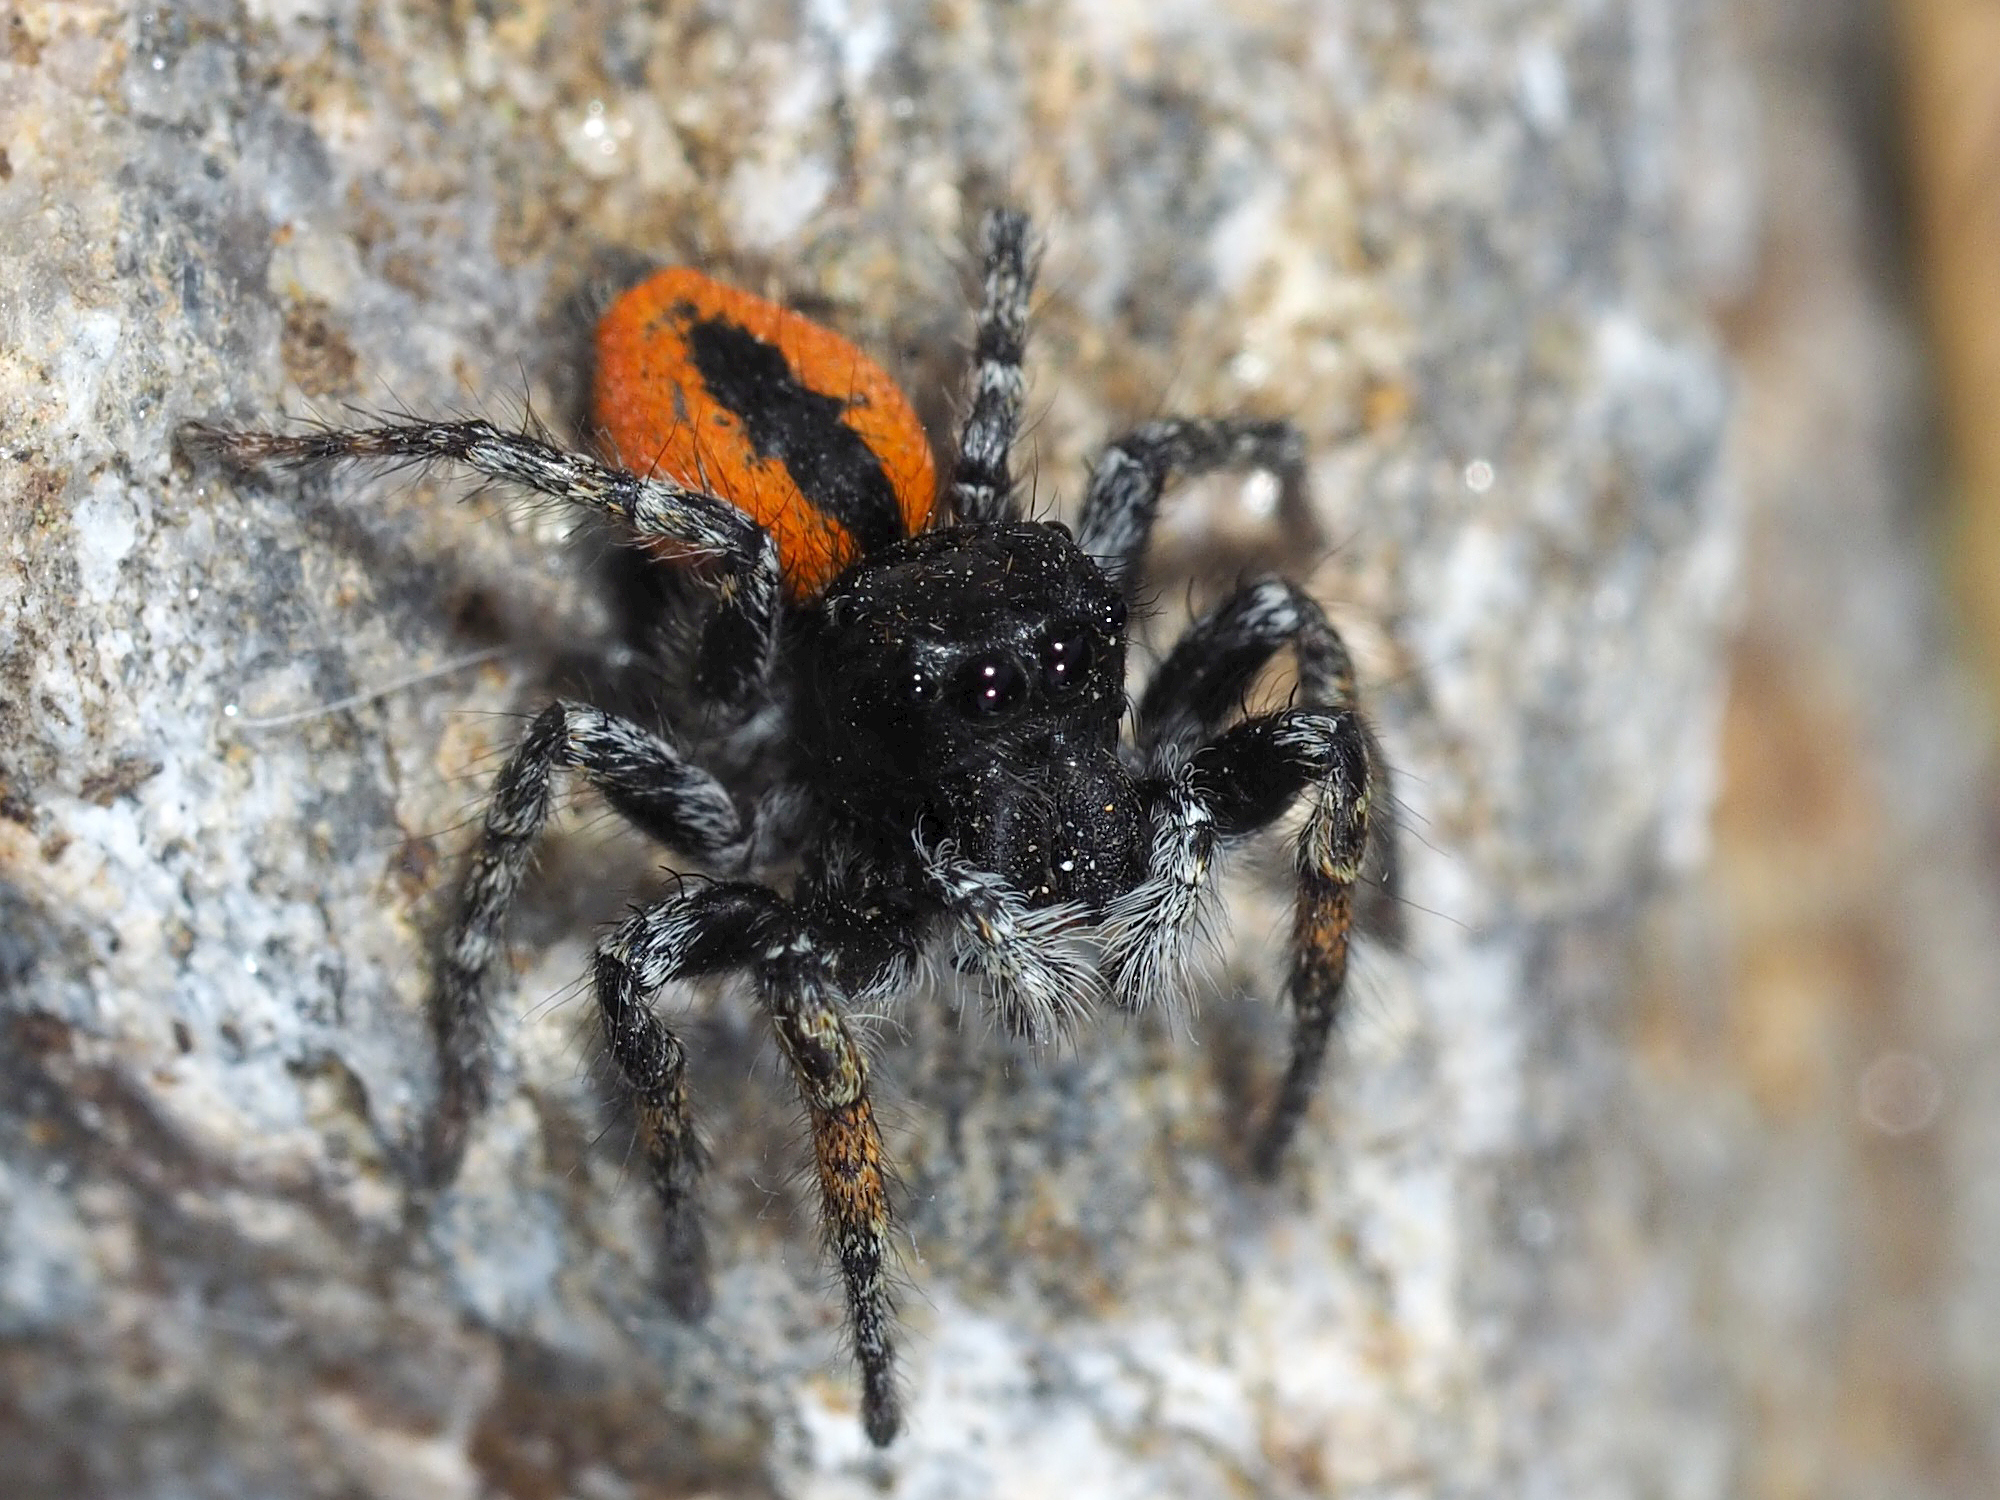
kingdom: Animalia
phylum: Arthropoda
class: Arachnida
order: Araneae
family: Salticidae
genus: Philaeus
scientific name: Philaeus chrysops
